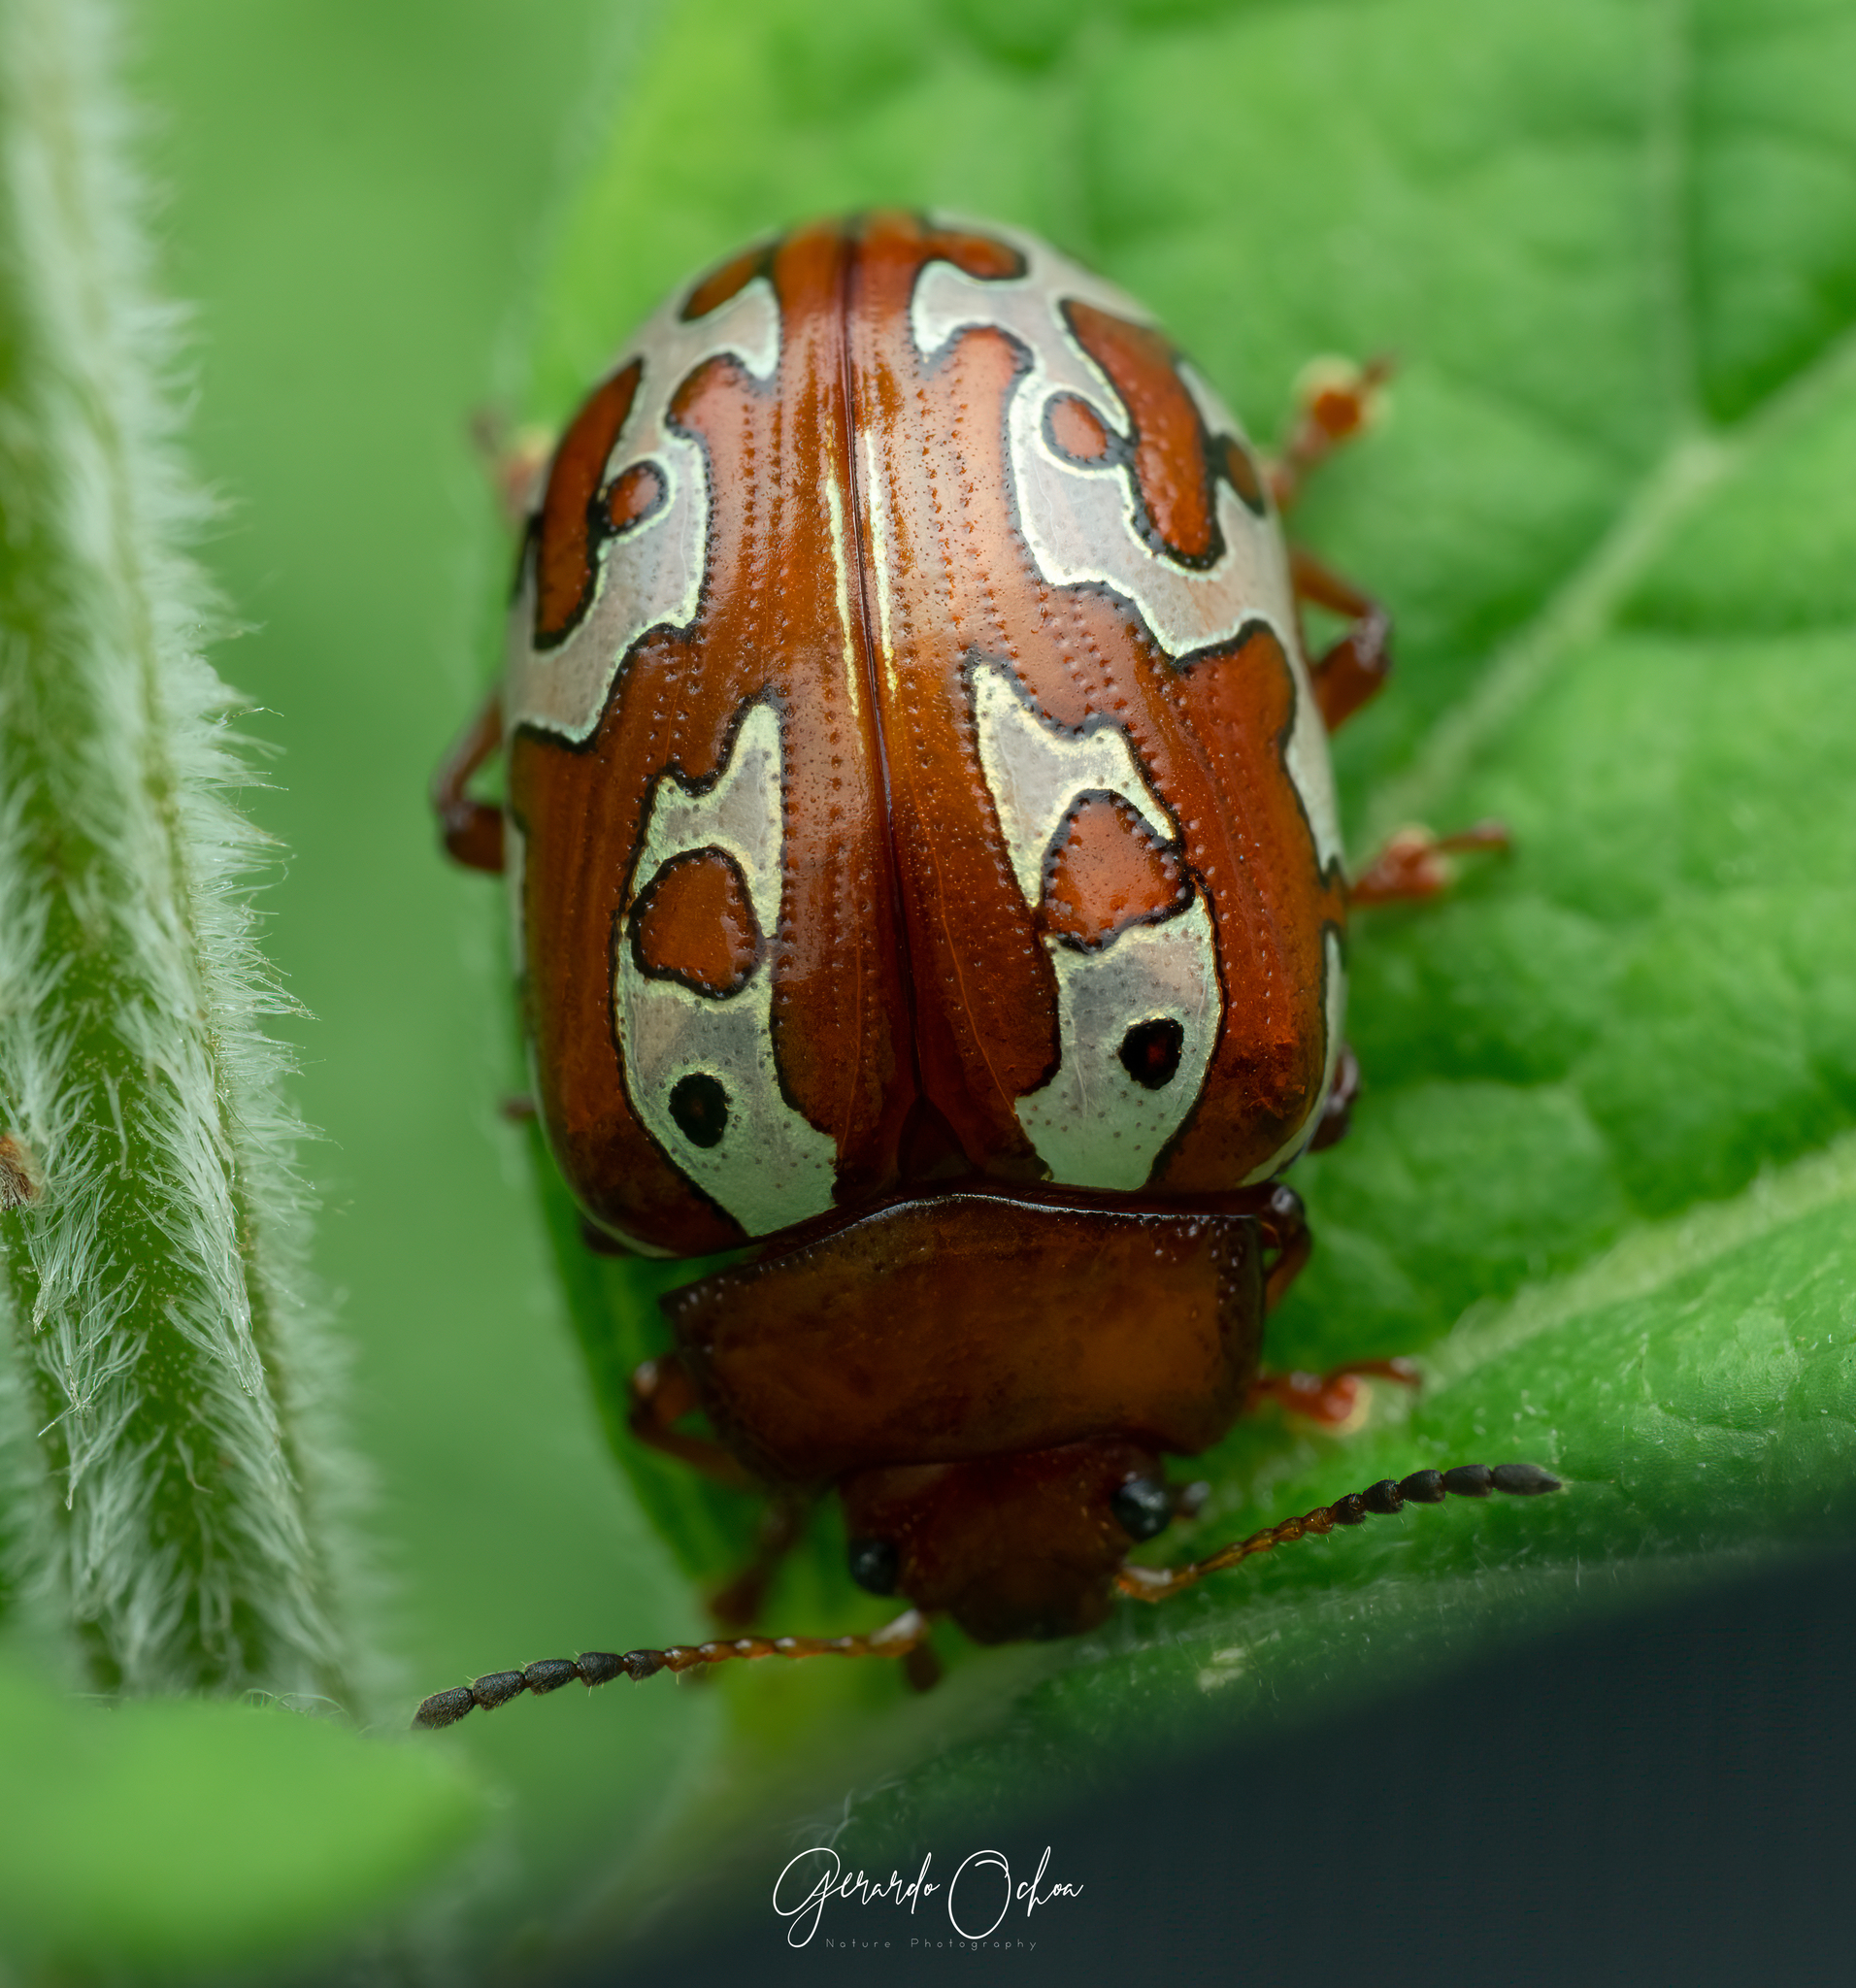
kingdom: Animalia
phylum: Arthropoda
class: Insecta
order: Coleoptera
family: Chrysomelidae
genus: Calligrapha
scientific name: Calligrapha aladina
